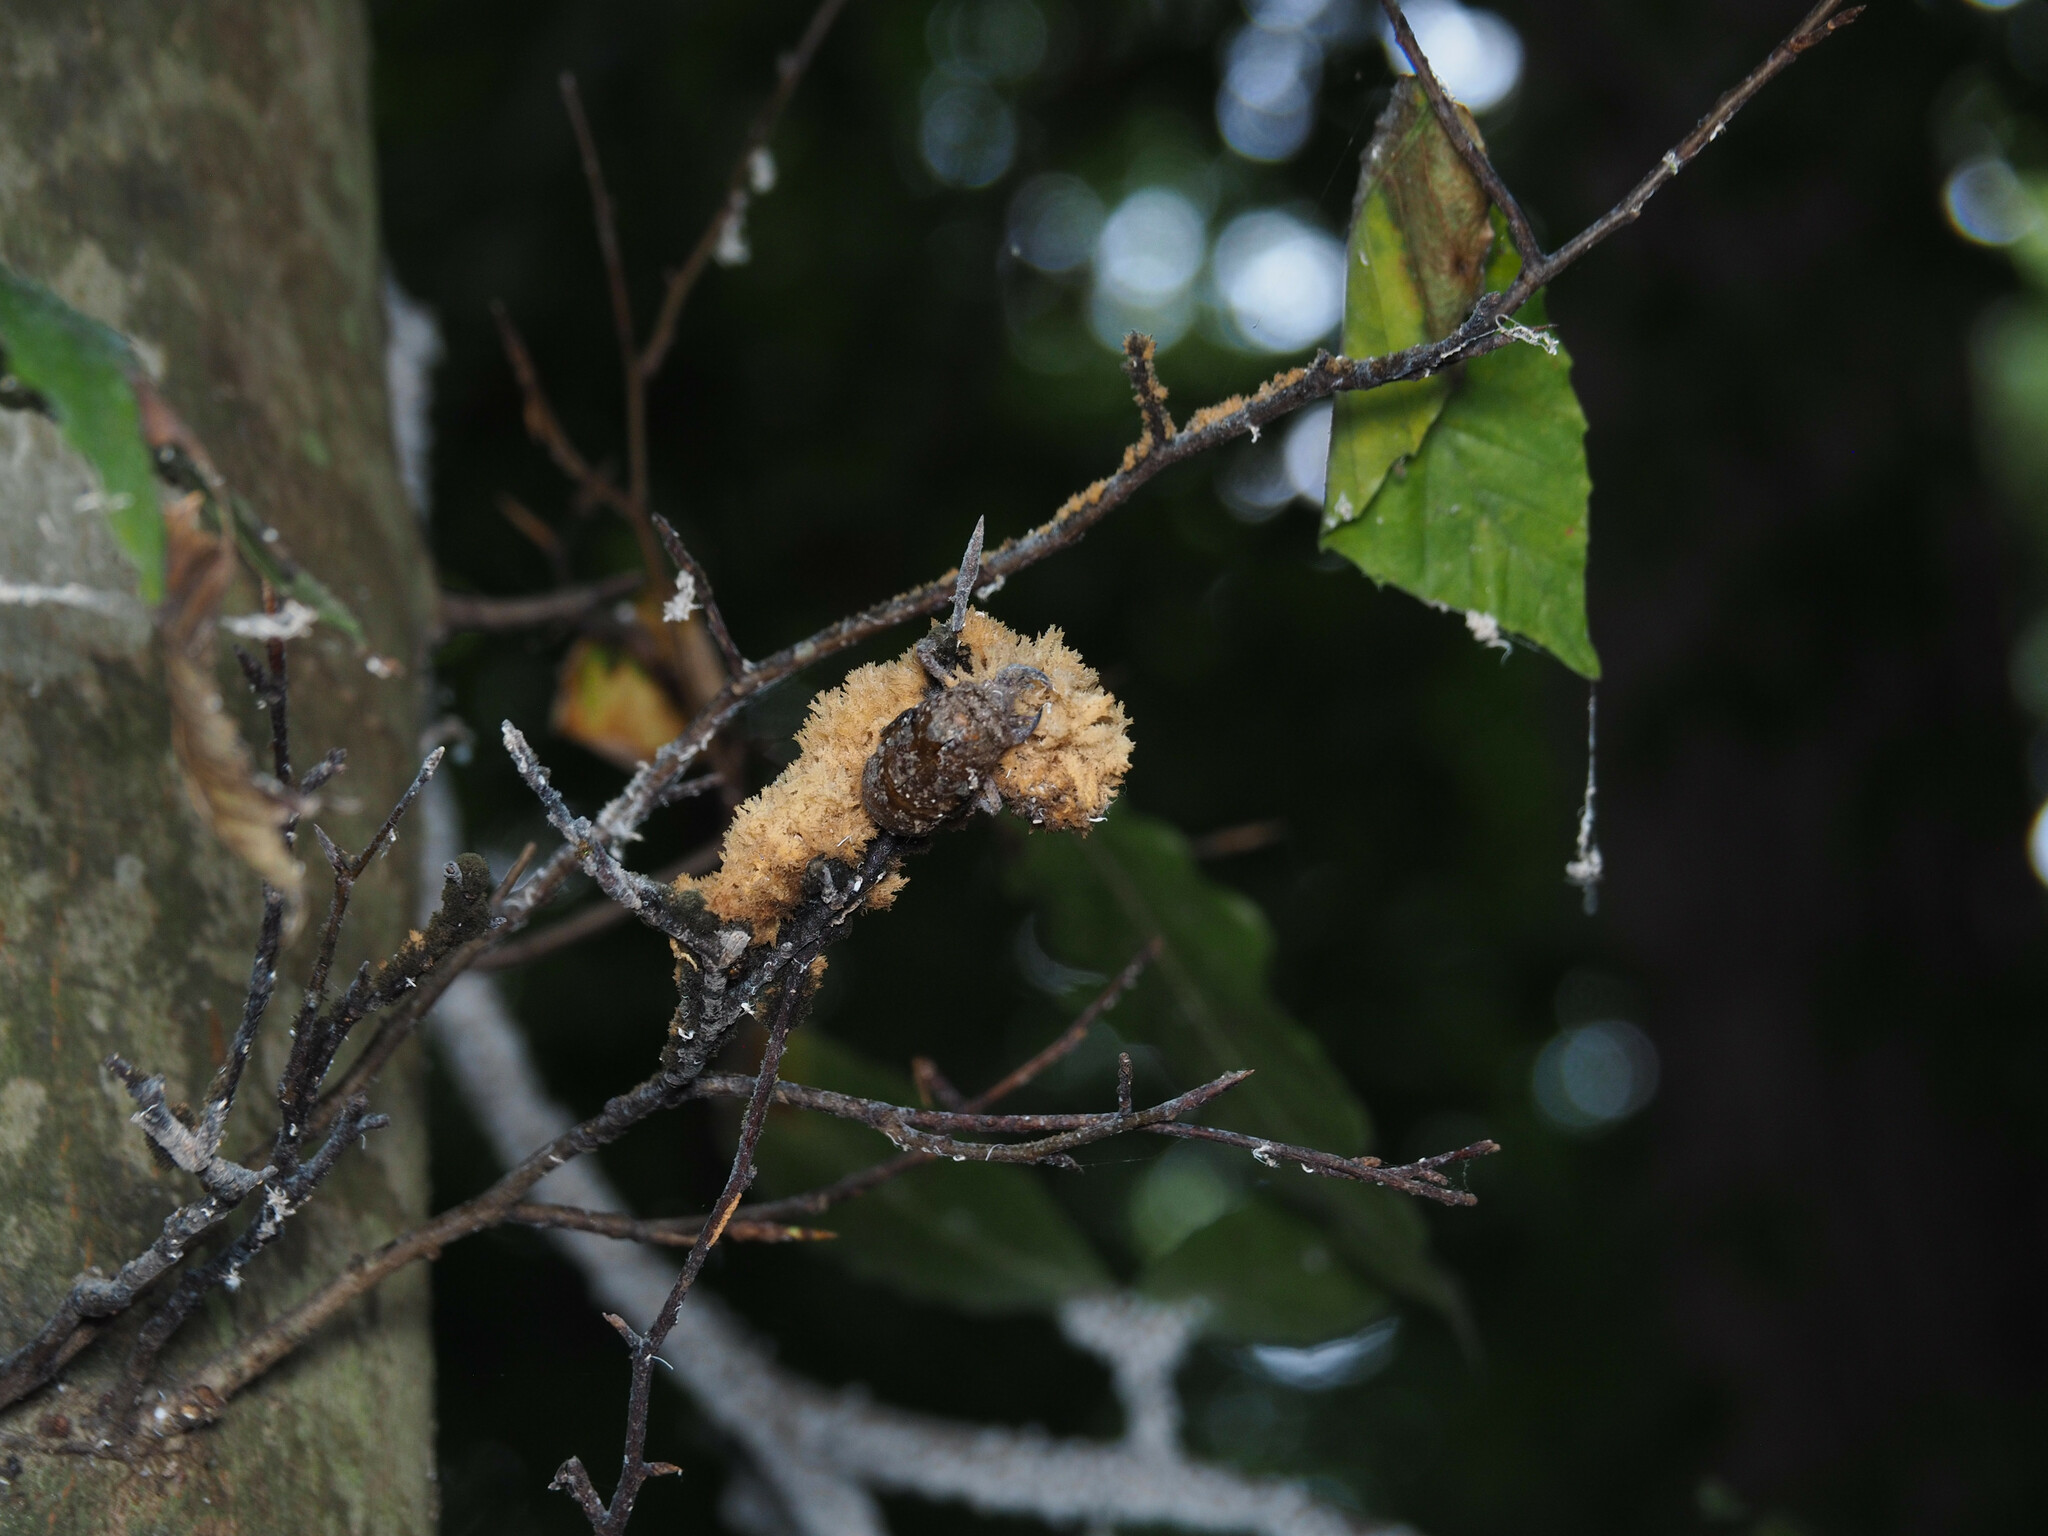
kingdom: Fungi
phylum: Ascomycota
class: Dothideomycetes
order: Capnodiales
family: Capnodiaceae
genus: Scorias
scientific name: Scorias spongiosa
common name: Black sooty mold
